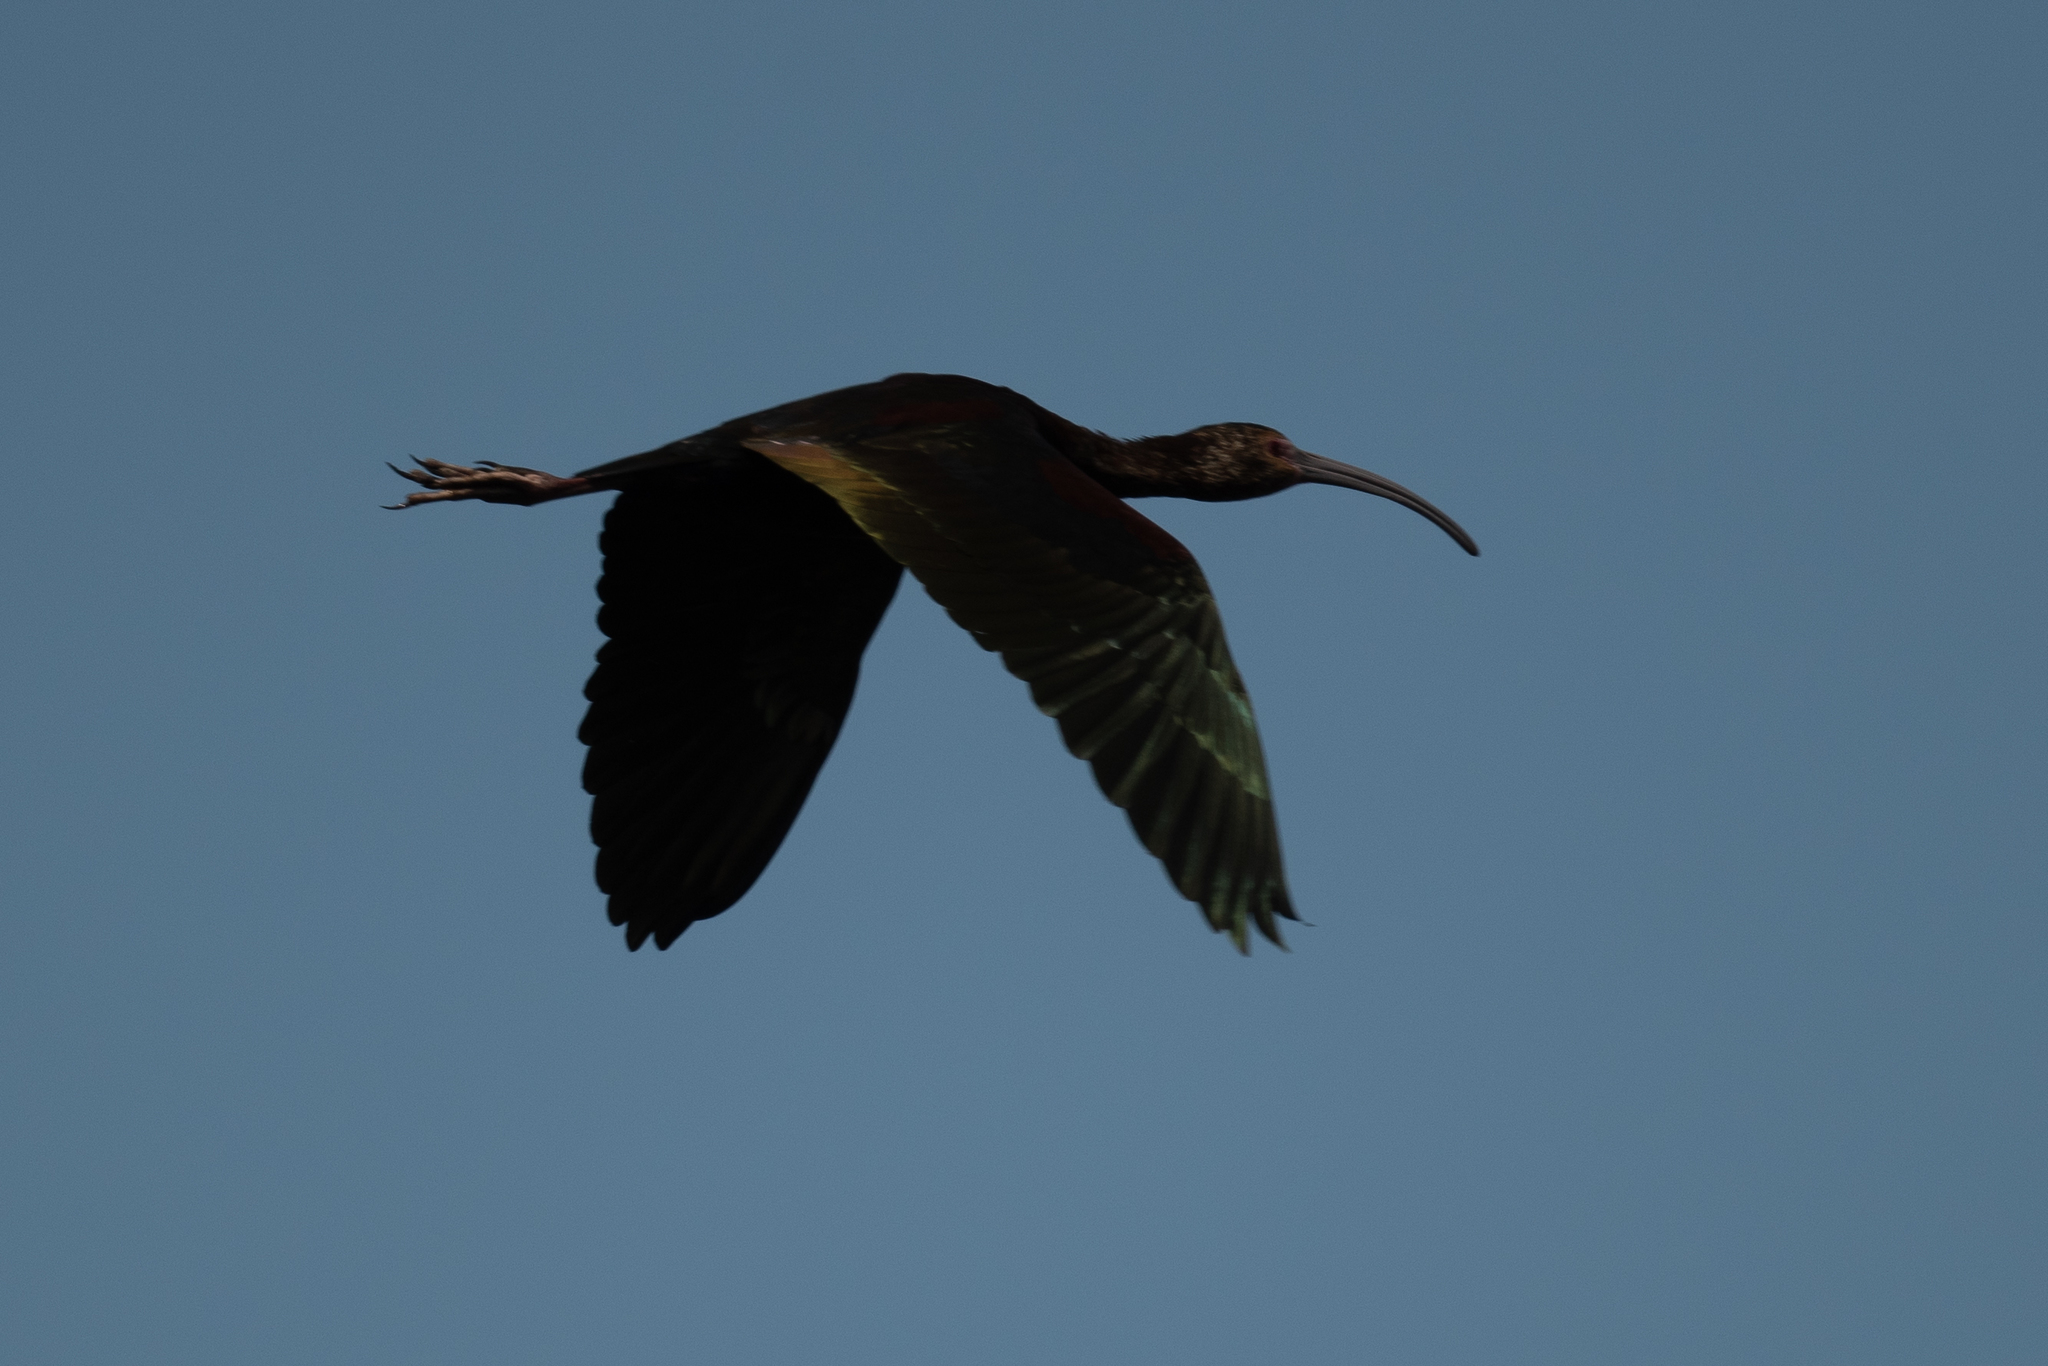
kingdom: Animalia
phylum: Chordata
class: Aves
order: Pelecaniformes
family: Threskiornithidae
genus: Plegadis
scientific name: Plegadis chihi
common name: White-faced ibis
